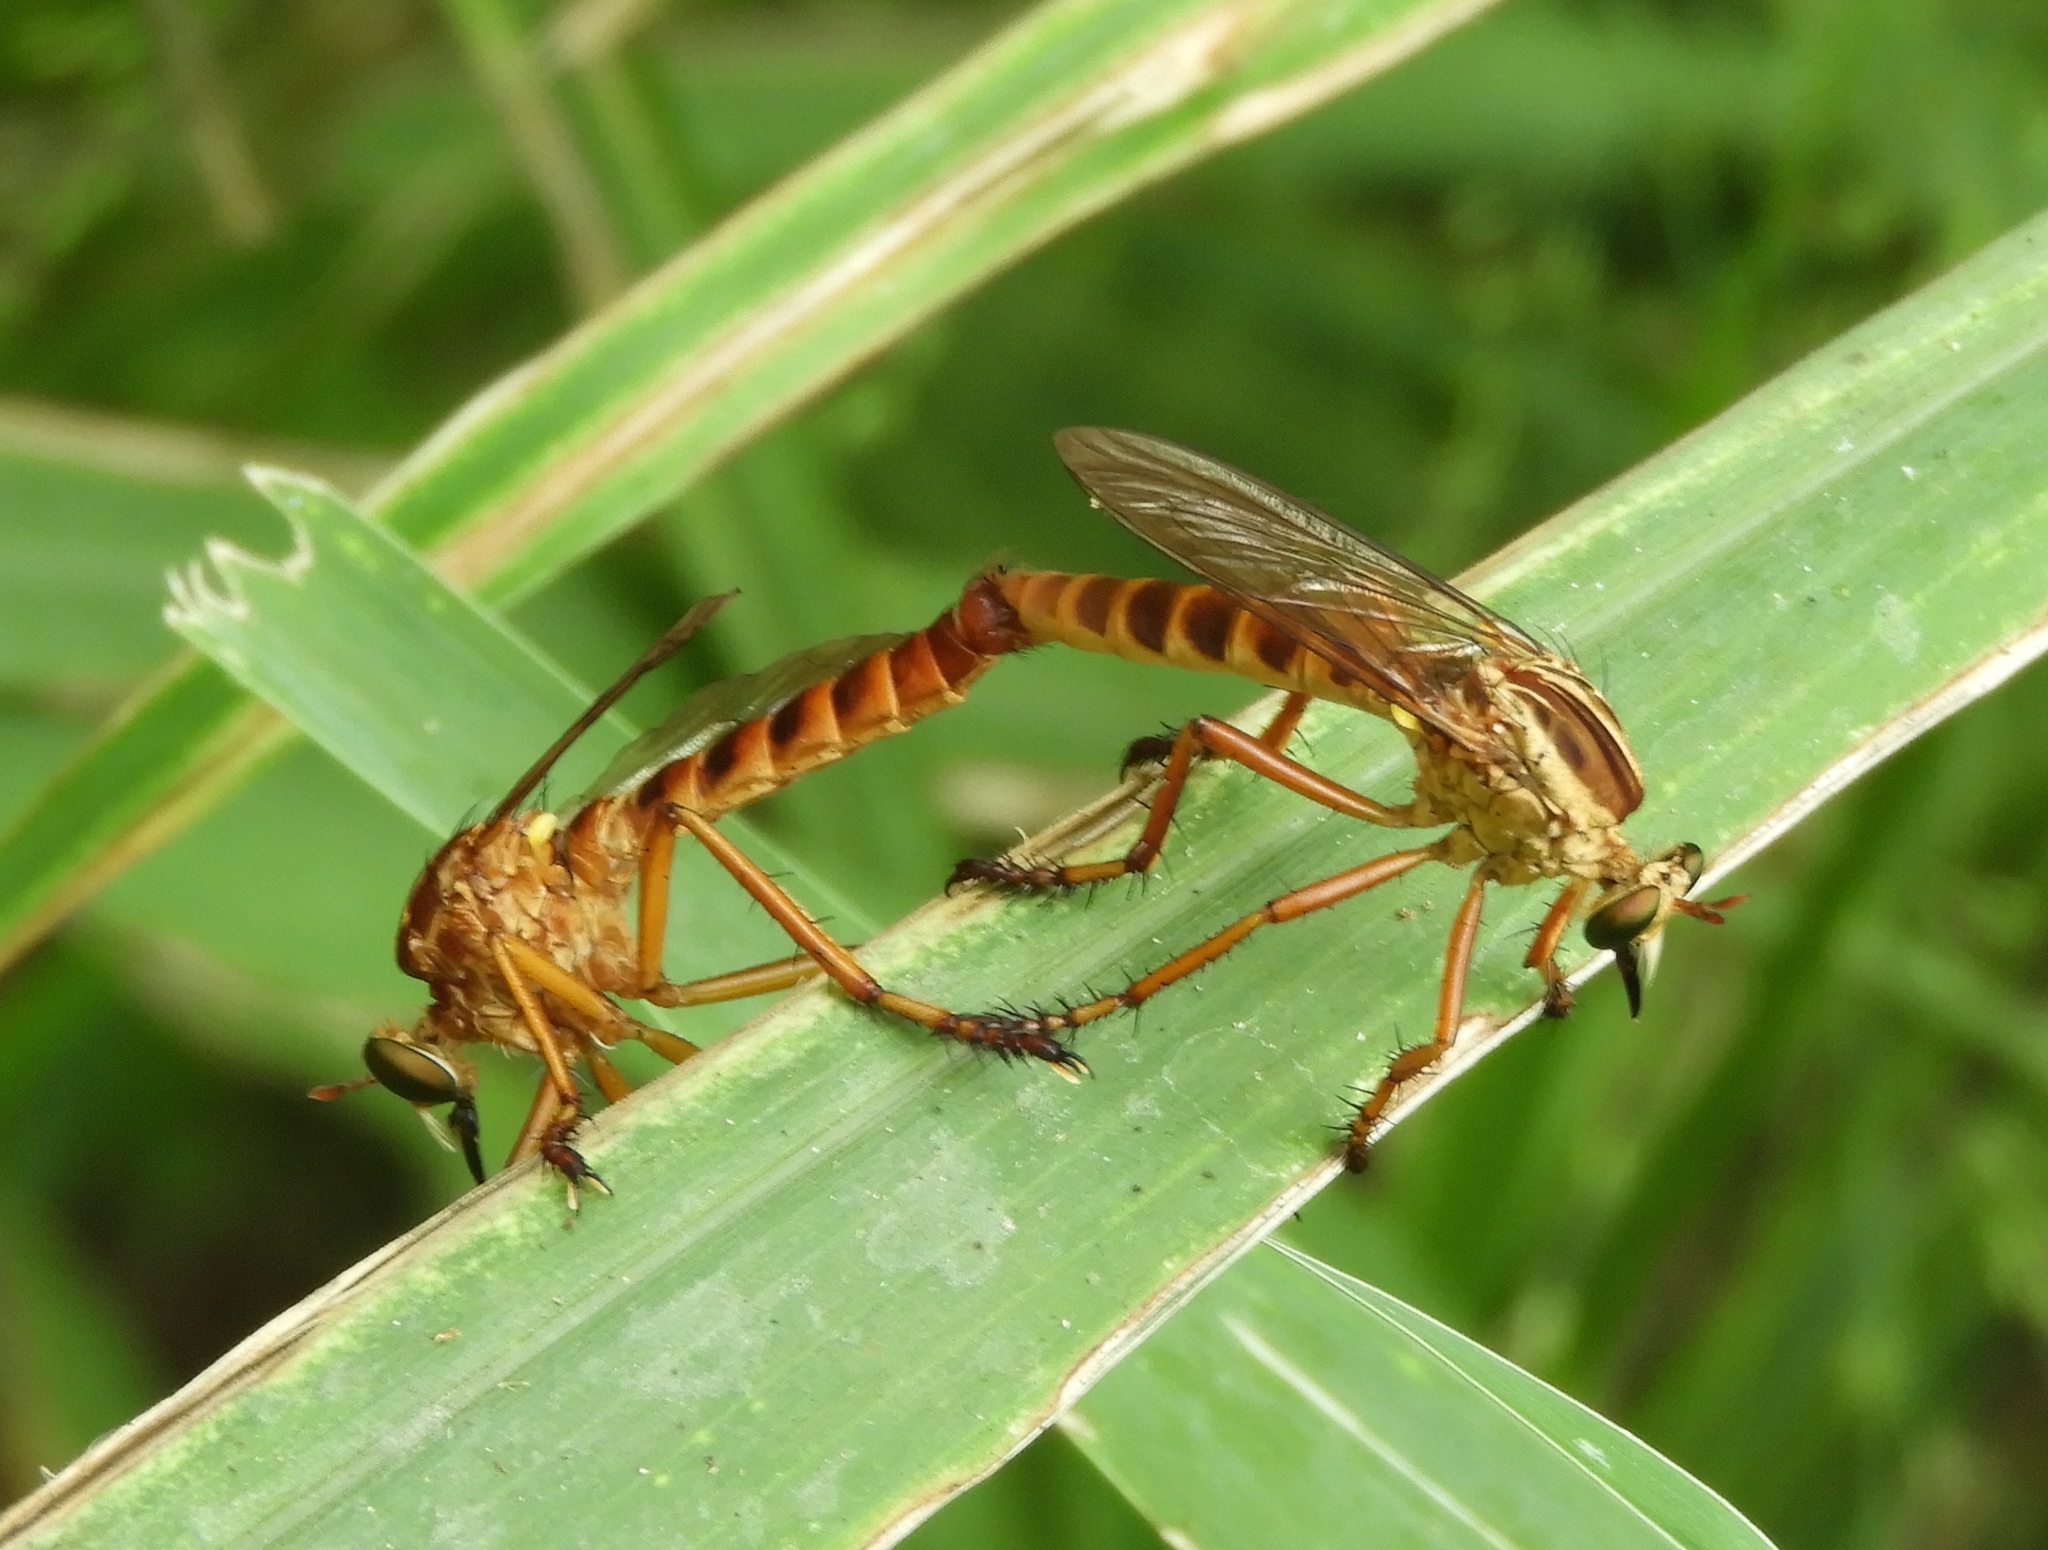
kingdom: Animalia
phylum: Arthropoda
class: Insecta
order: Diptera
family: Asilidae
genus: Diogmites
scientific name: Diogmites
